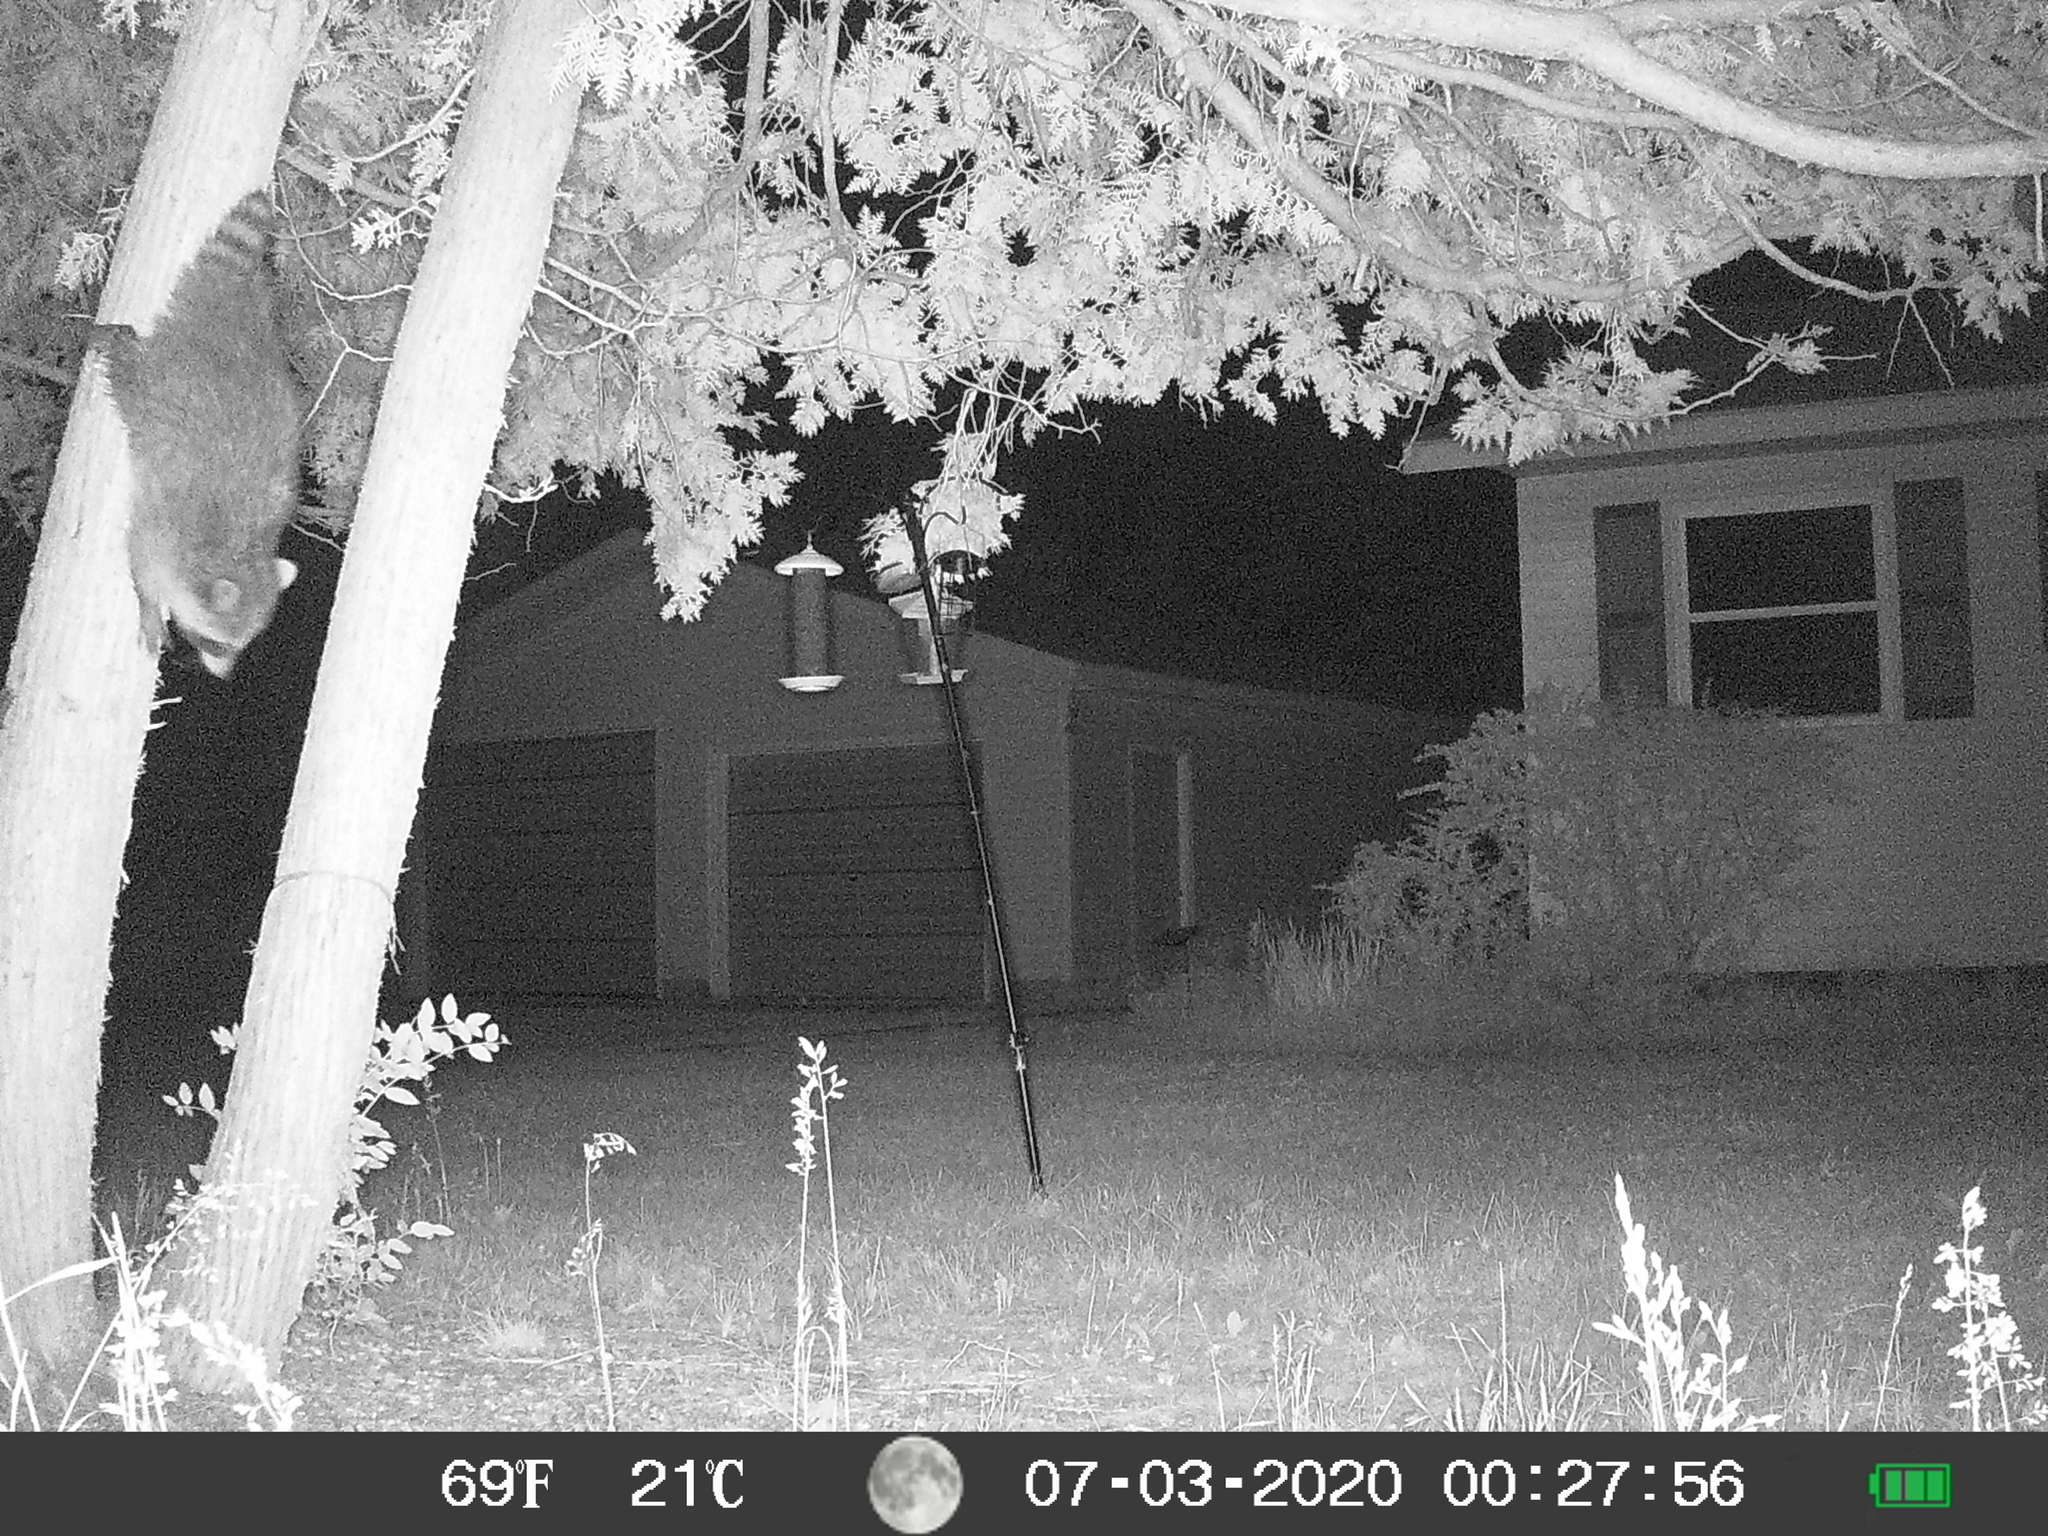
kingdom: Animalia
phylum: Chordata
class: Mammalia
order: Carnivora
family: Procyonidae
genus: Procyon
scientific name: Procyon lotor
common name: Raccoon
